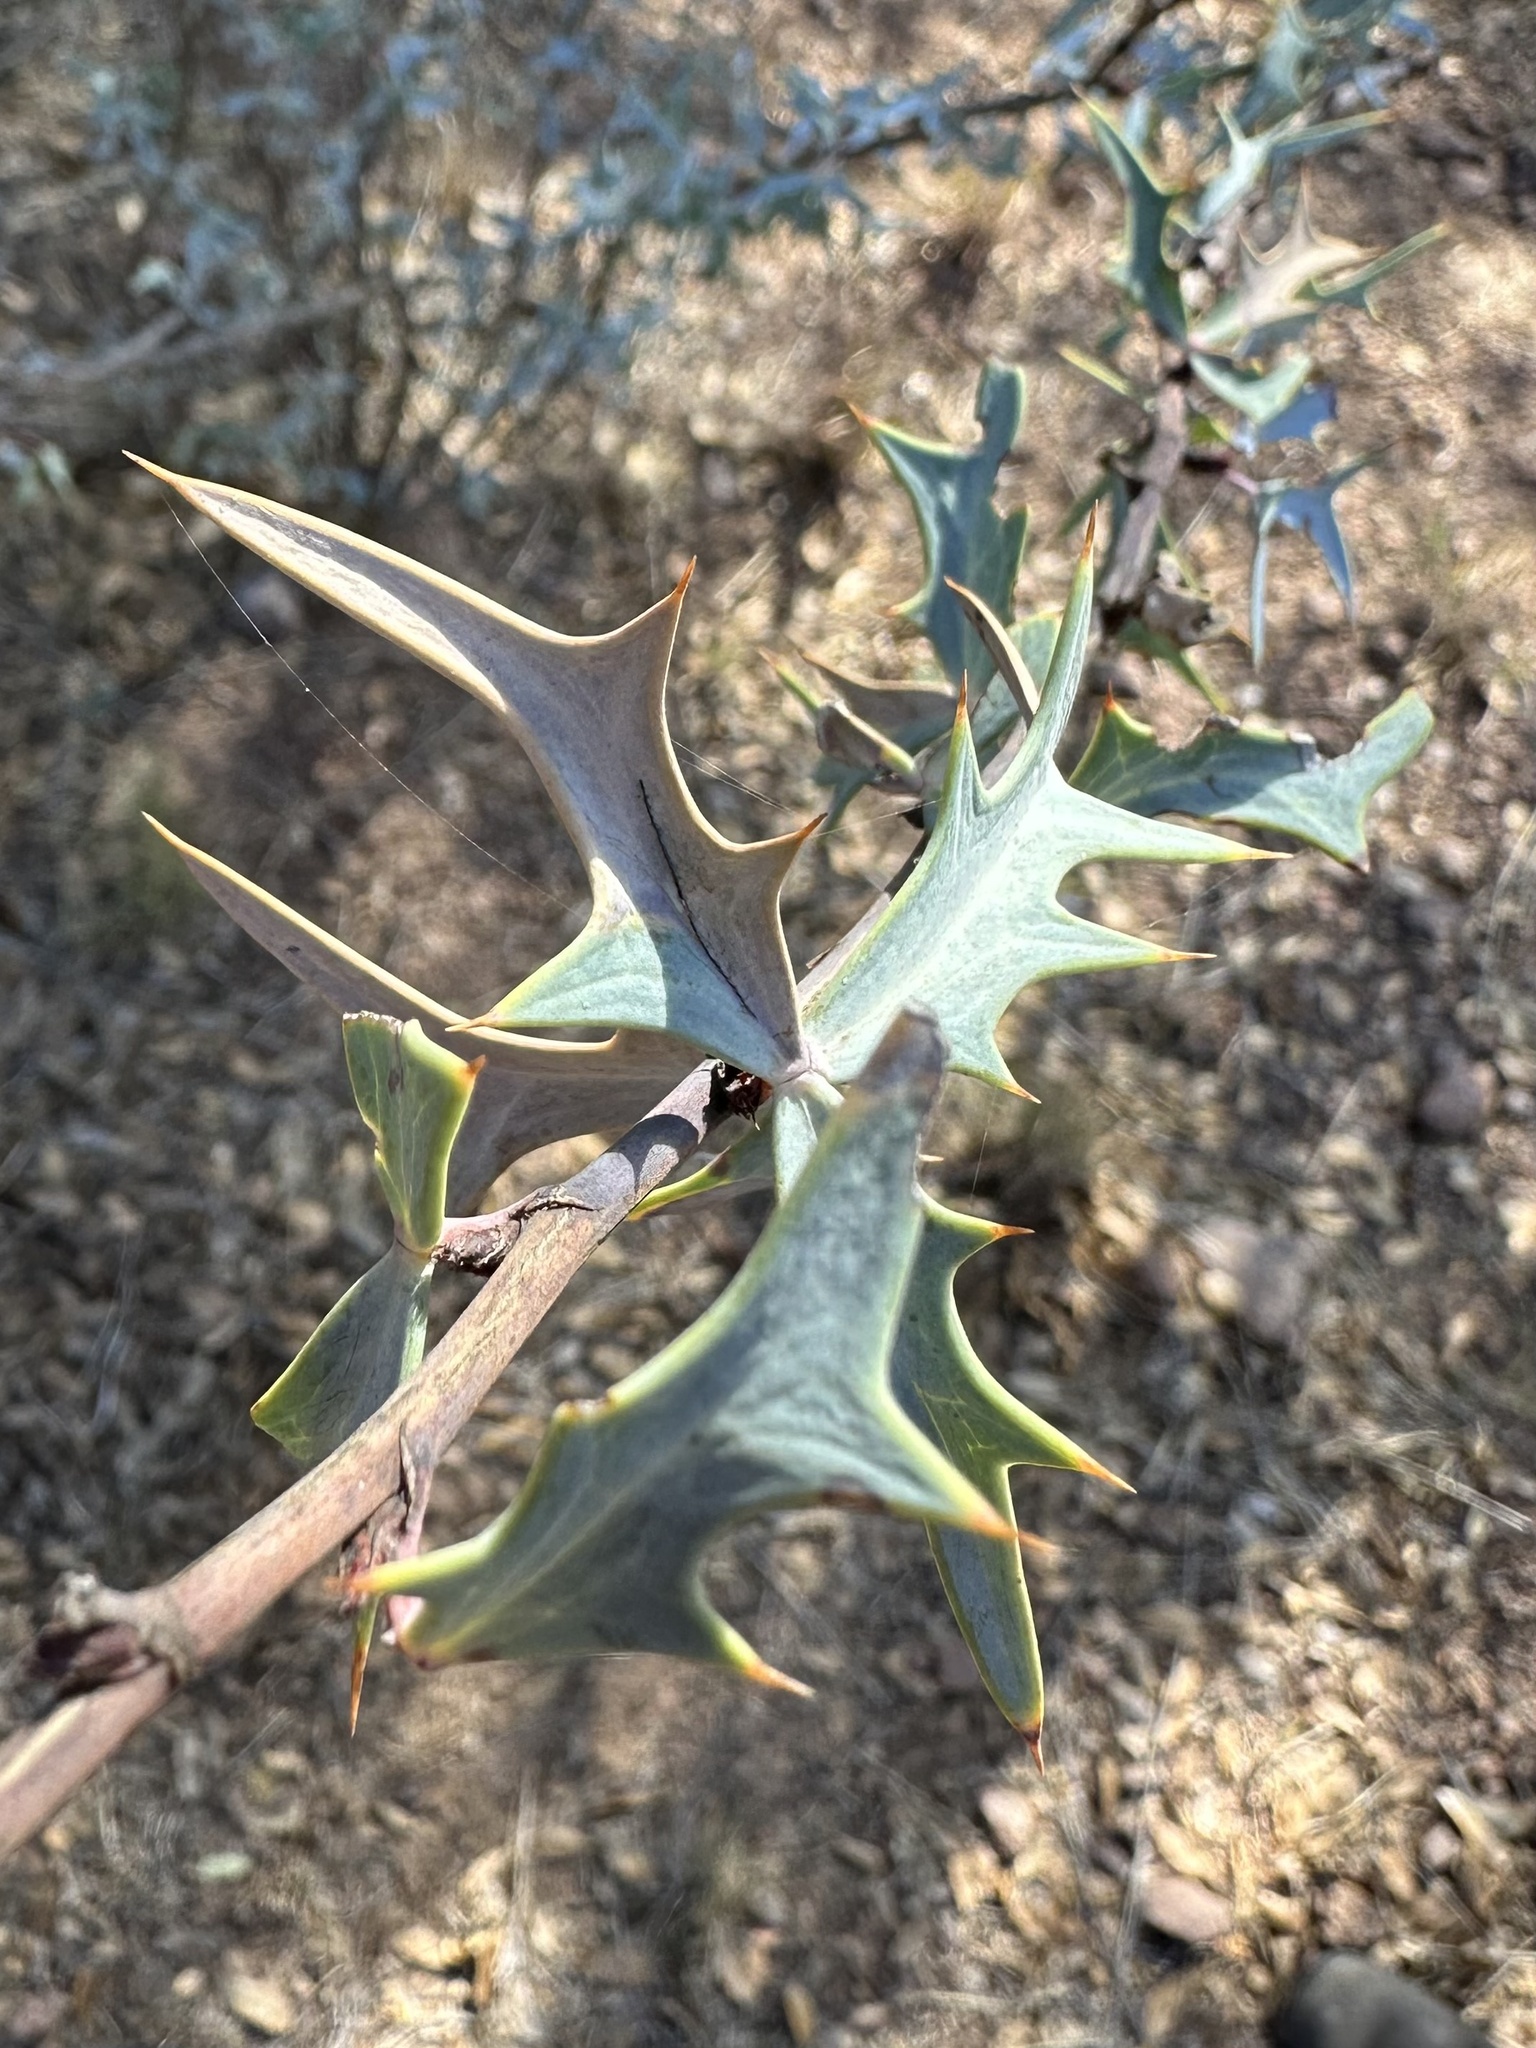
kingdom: Plantae
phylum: Tracheophyta
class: Magnoliopsida
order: Ranunculales
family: Berberidaceae
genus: Alloberberis
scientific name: Alloberberis trifoliolata
